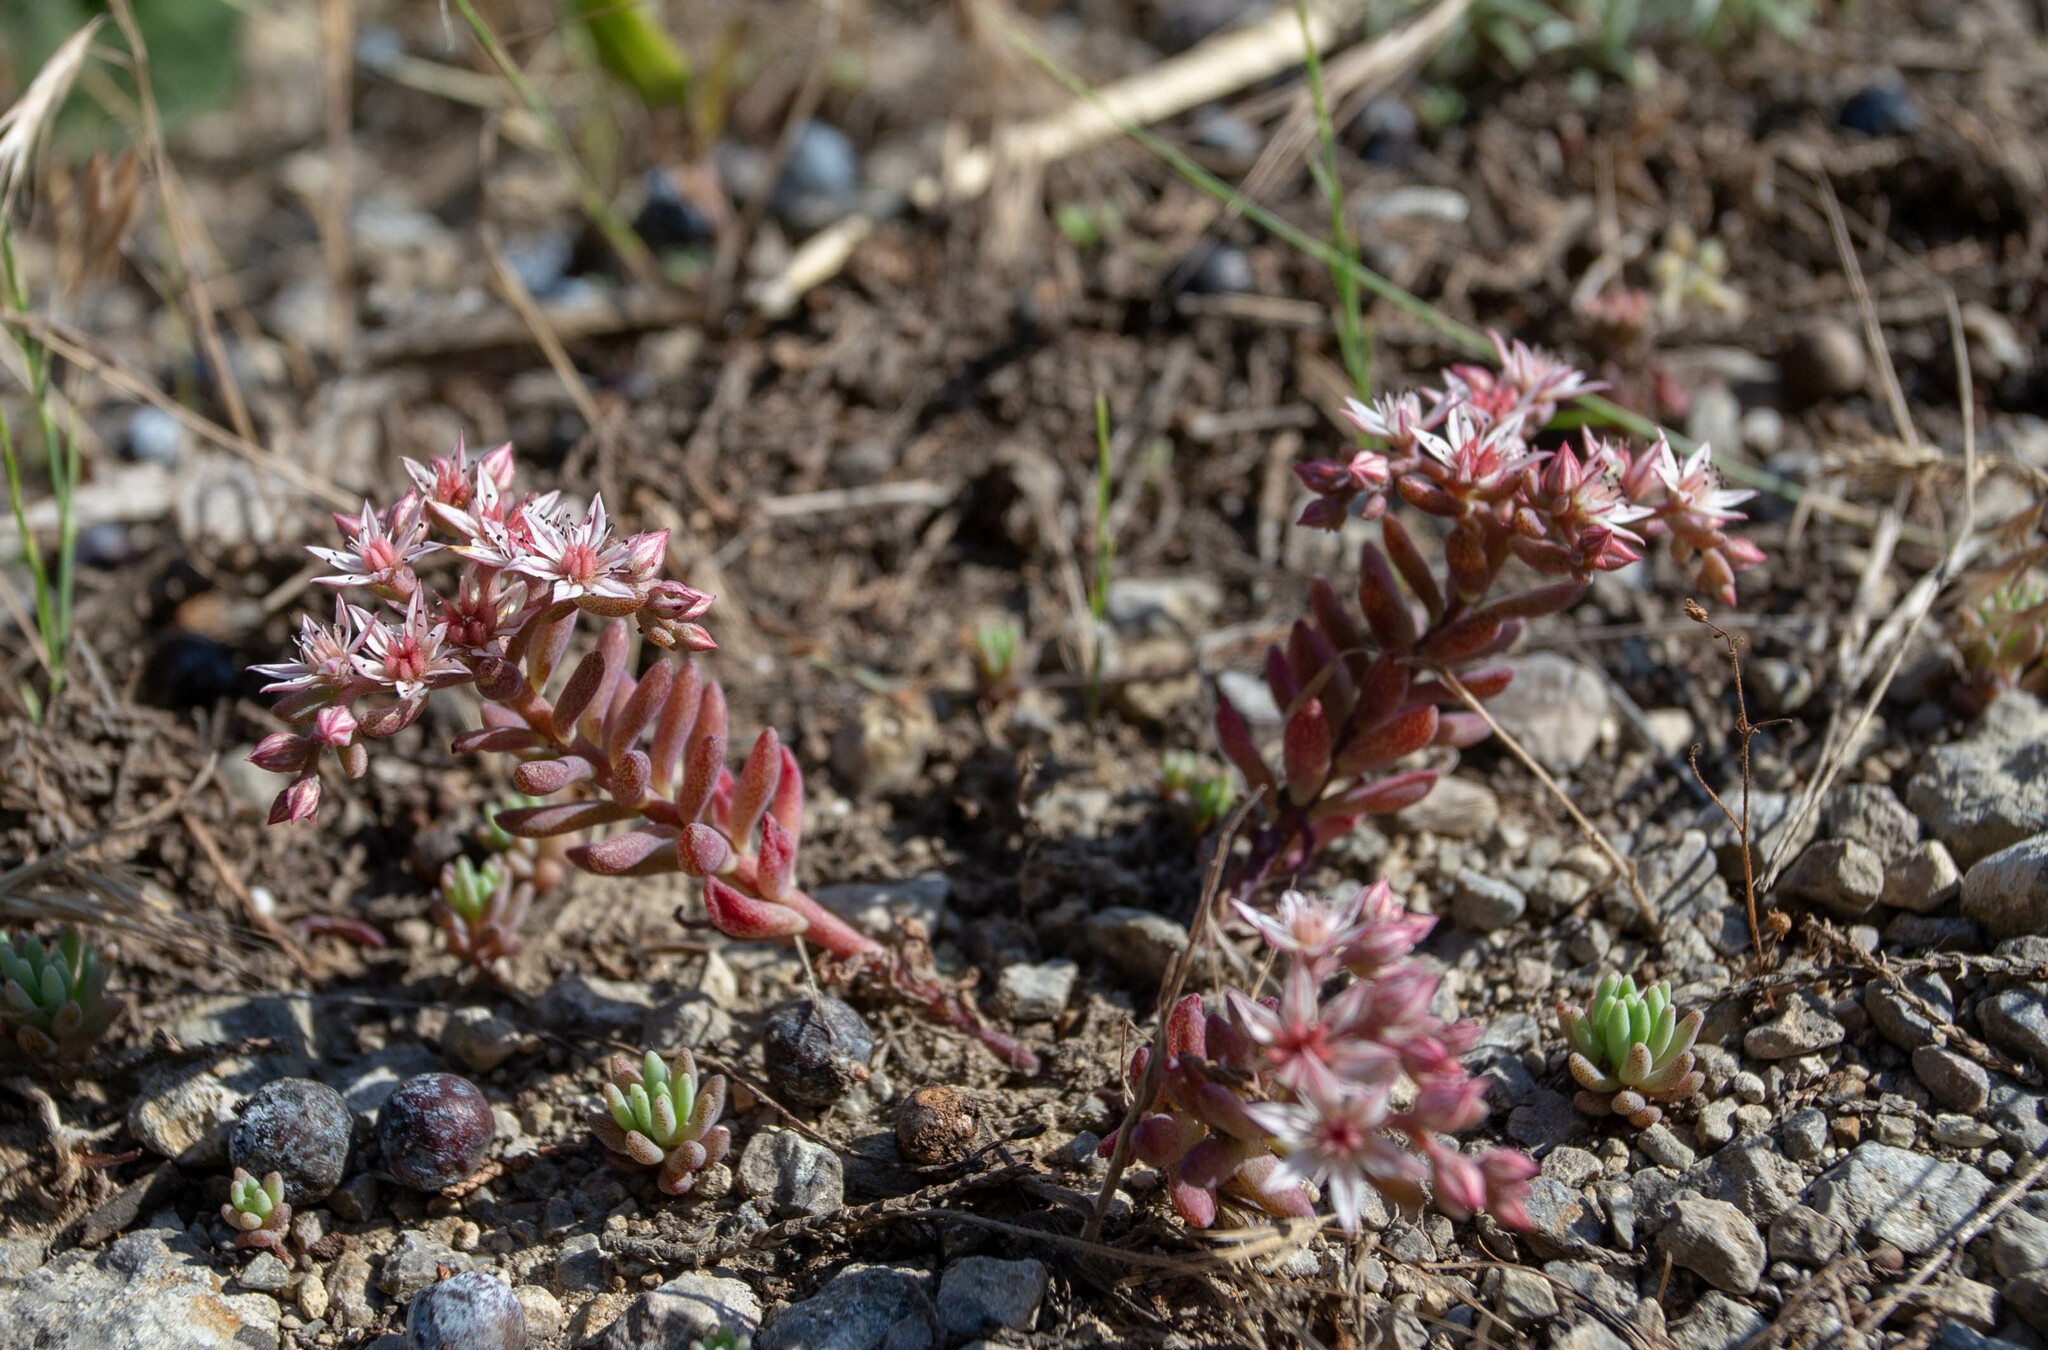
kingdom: Plantae
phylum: Tracheophyta
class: Magnoliopsida
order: Saxifragales
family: Crassulaceae
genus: Sedum
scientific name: Sedum hispanicum
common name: Spanish stonecrop
